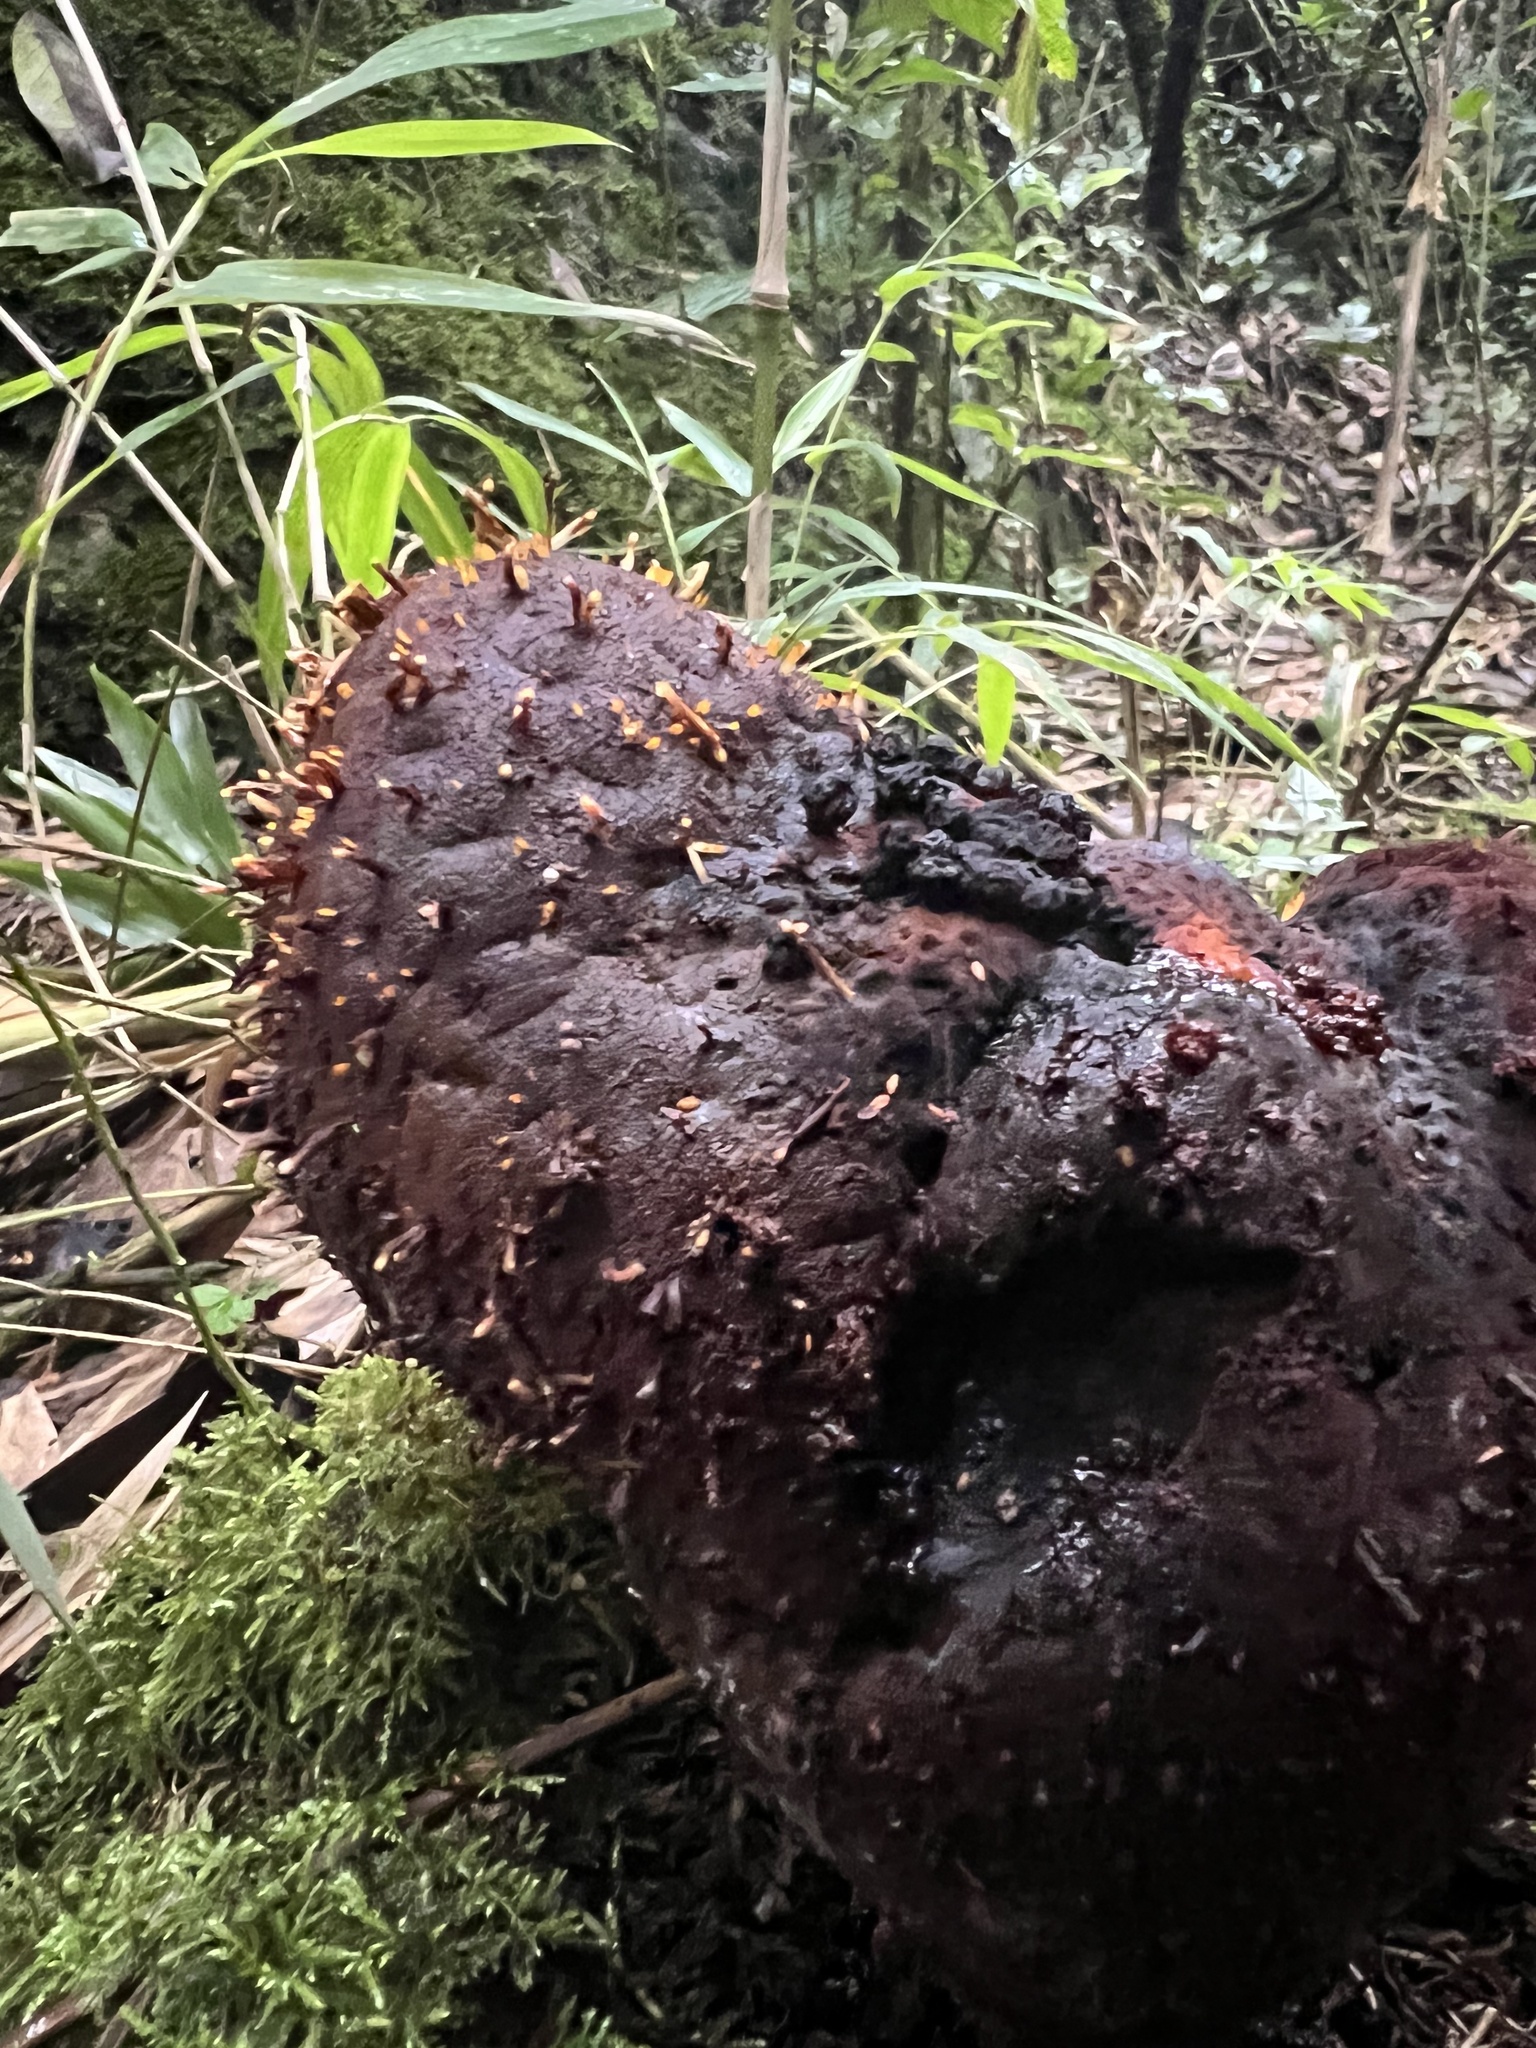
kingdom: Plantae
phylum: Tracheophyta
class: Magnoliopsida
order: Santalales
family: Balanophoraceae
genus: Corynaea
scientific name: Corynaea crassa
